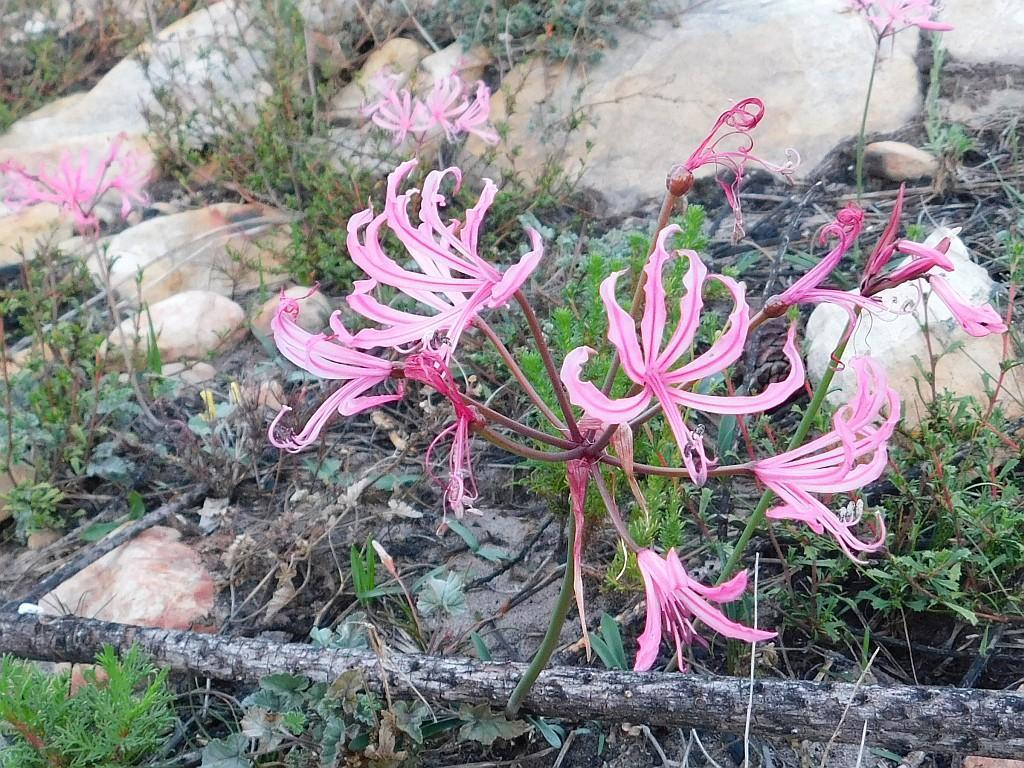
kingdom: Plantae
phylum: Tracheophyta
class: Liliopsida
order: Asparagales
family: Amaryllidaceae
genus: Nerine
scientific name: Nerine humilis
